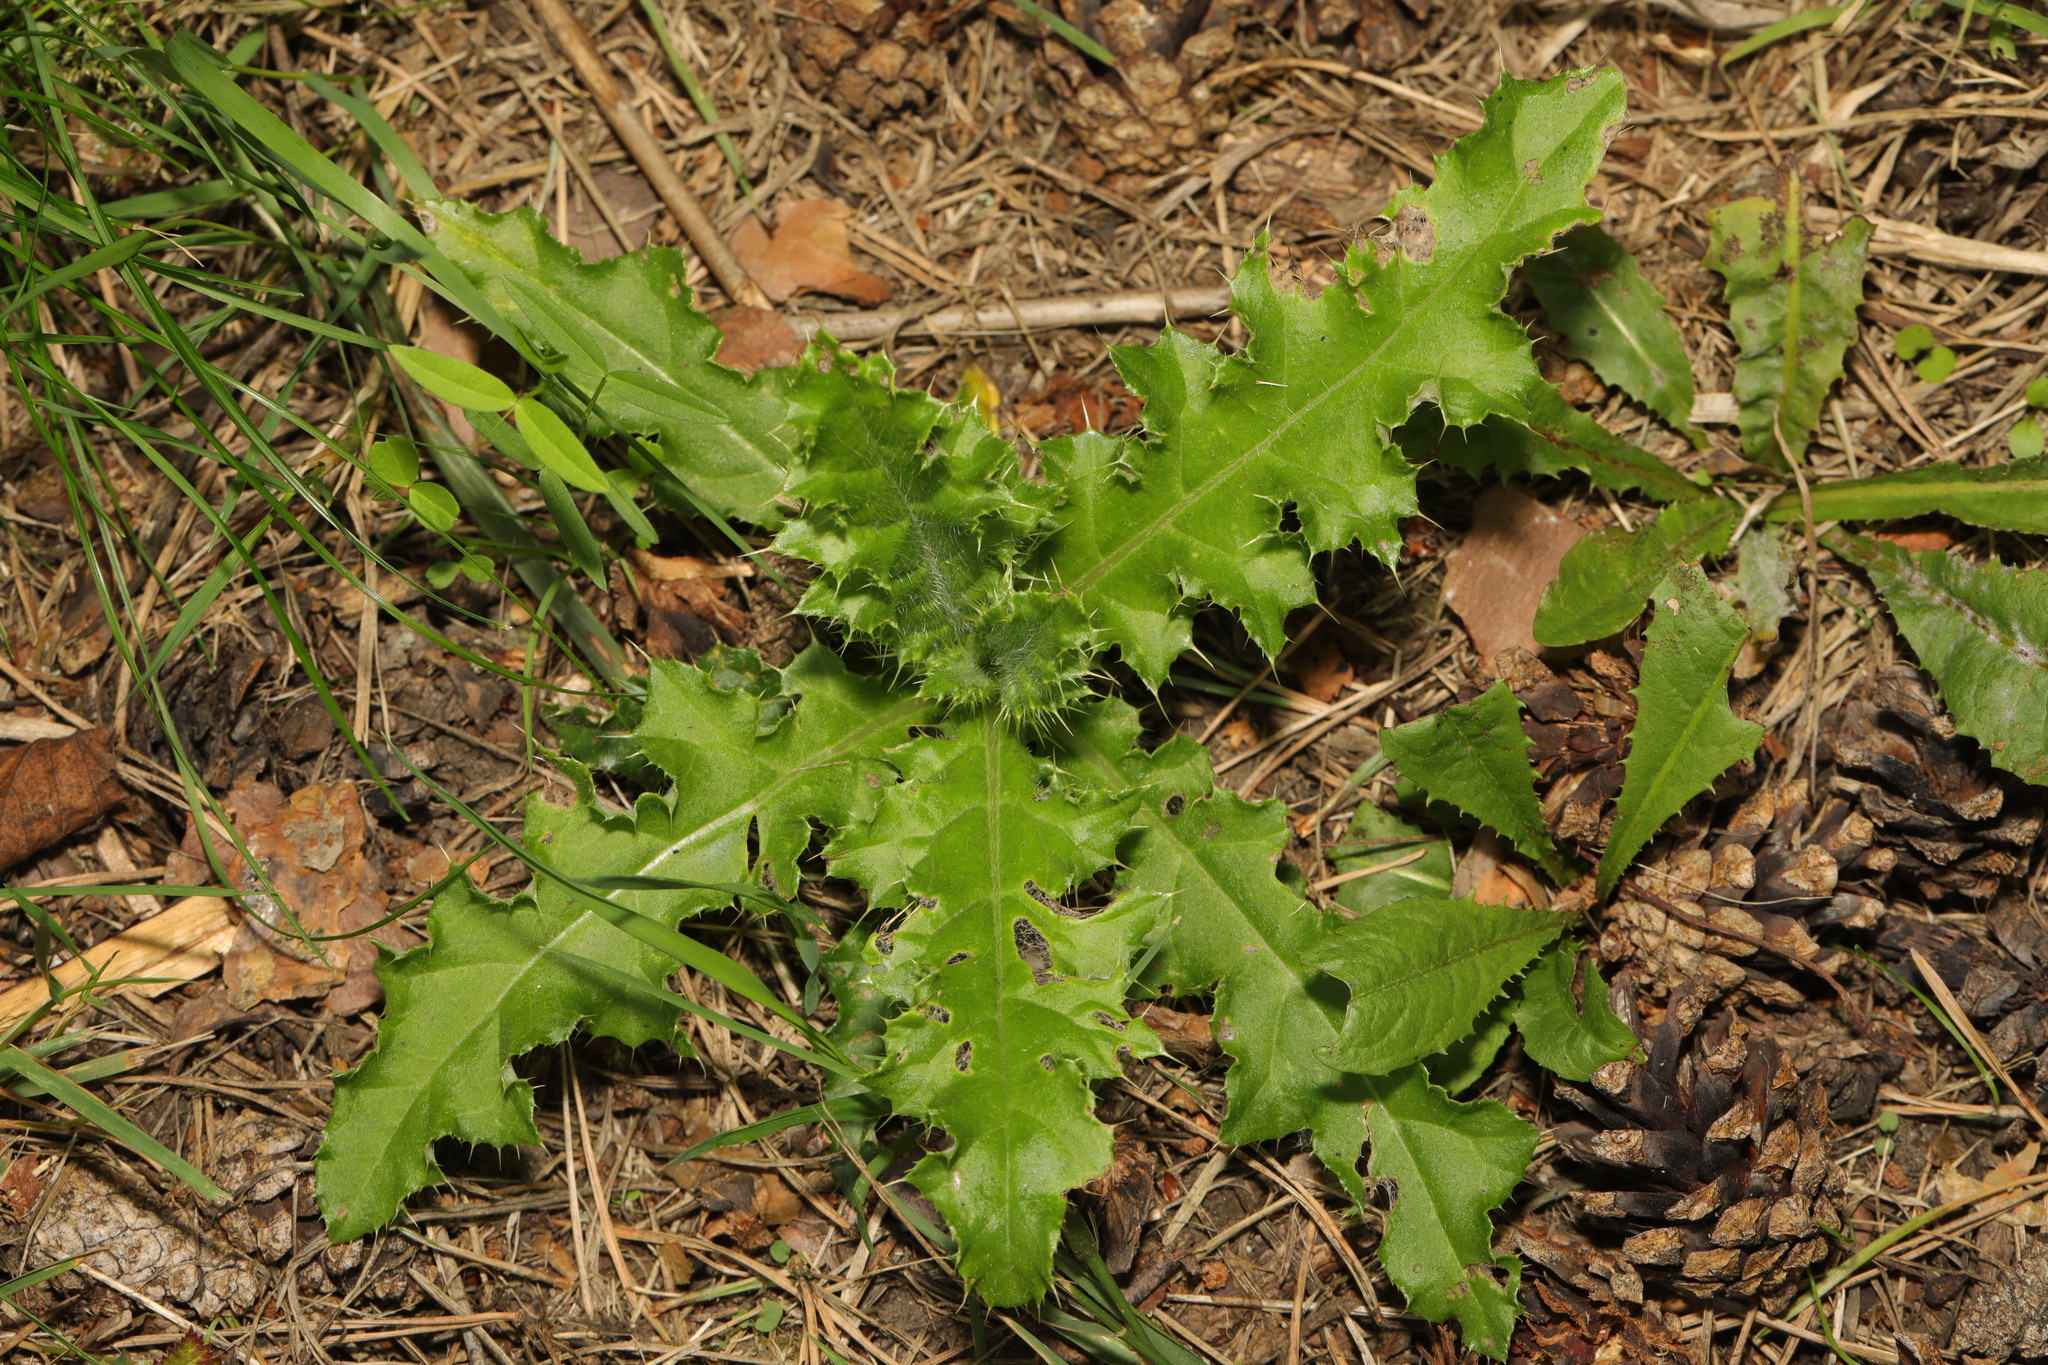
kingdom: Plantae
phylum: Tracheophyta
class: Magnoliopsida
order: Asterales
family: Asteraceae
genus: Cirsium
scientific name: Cirsium arvense
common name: Creeping thistle
